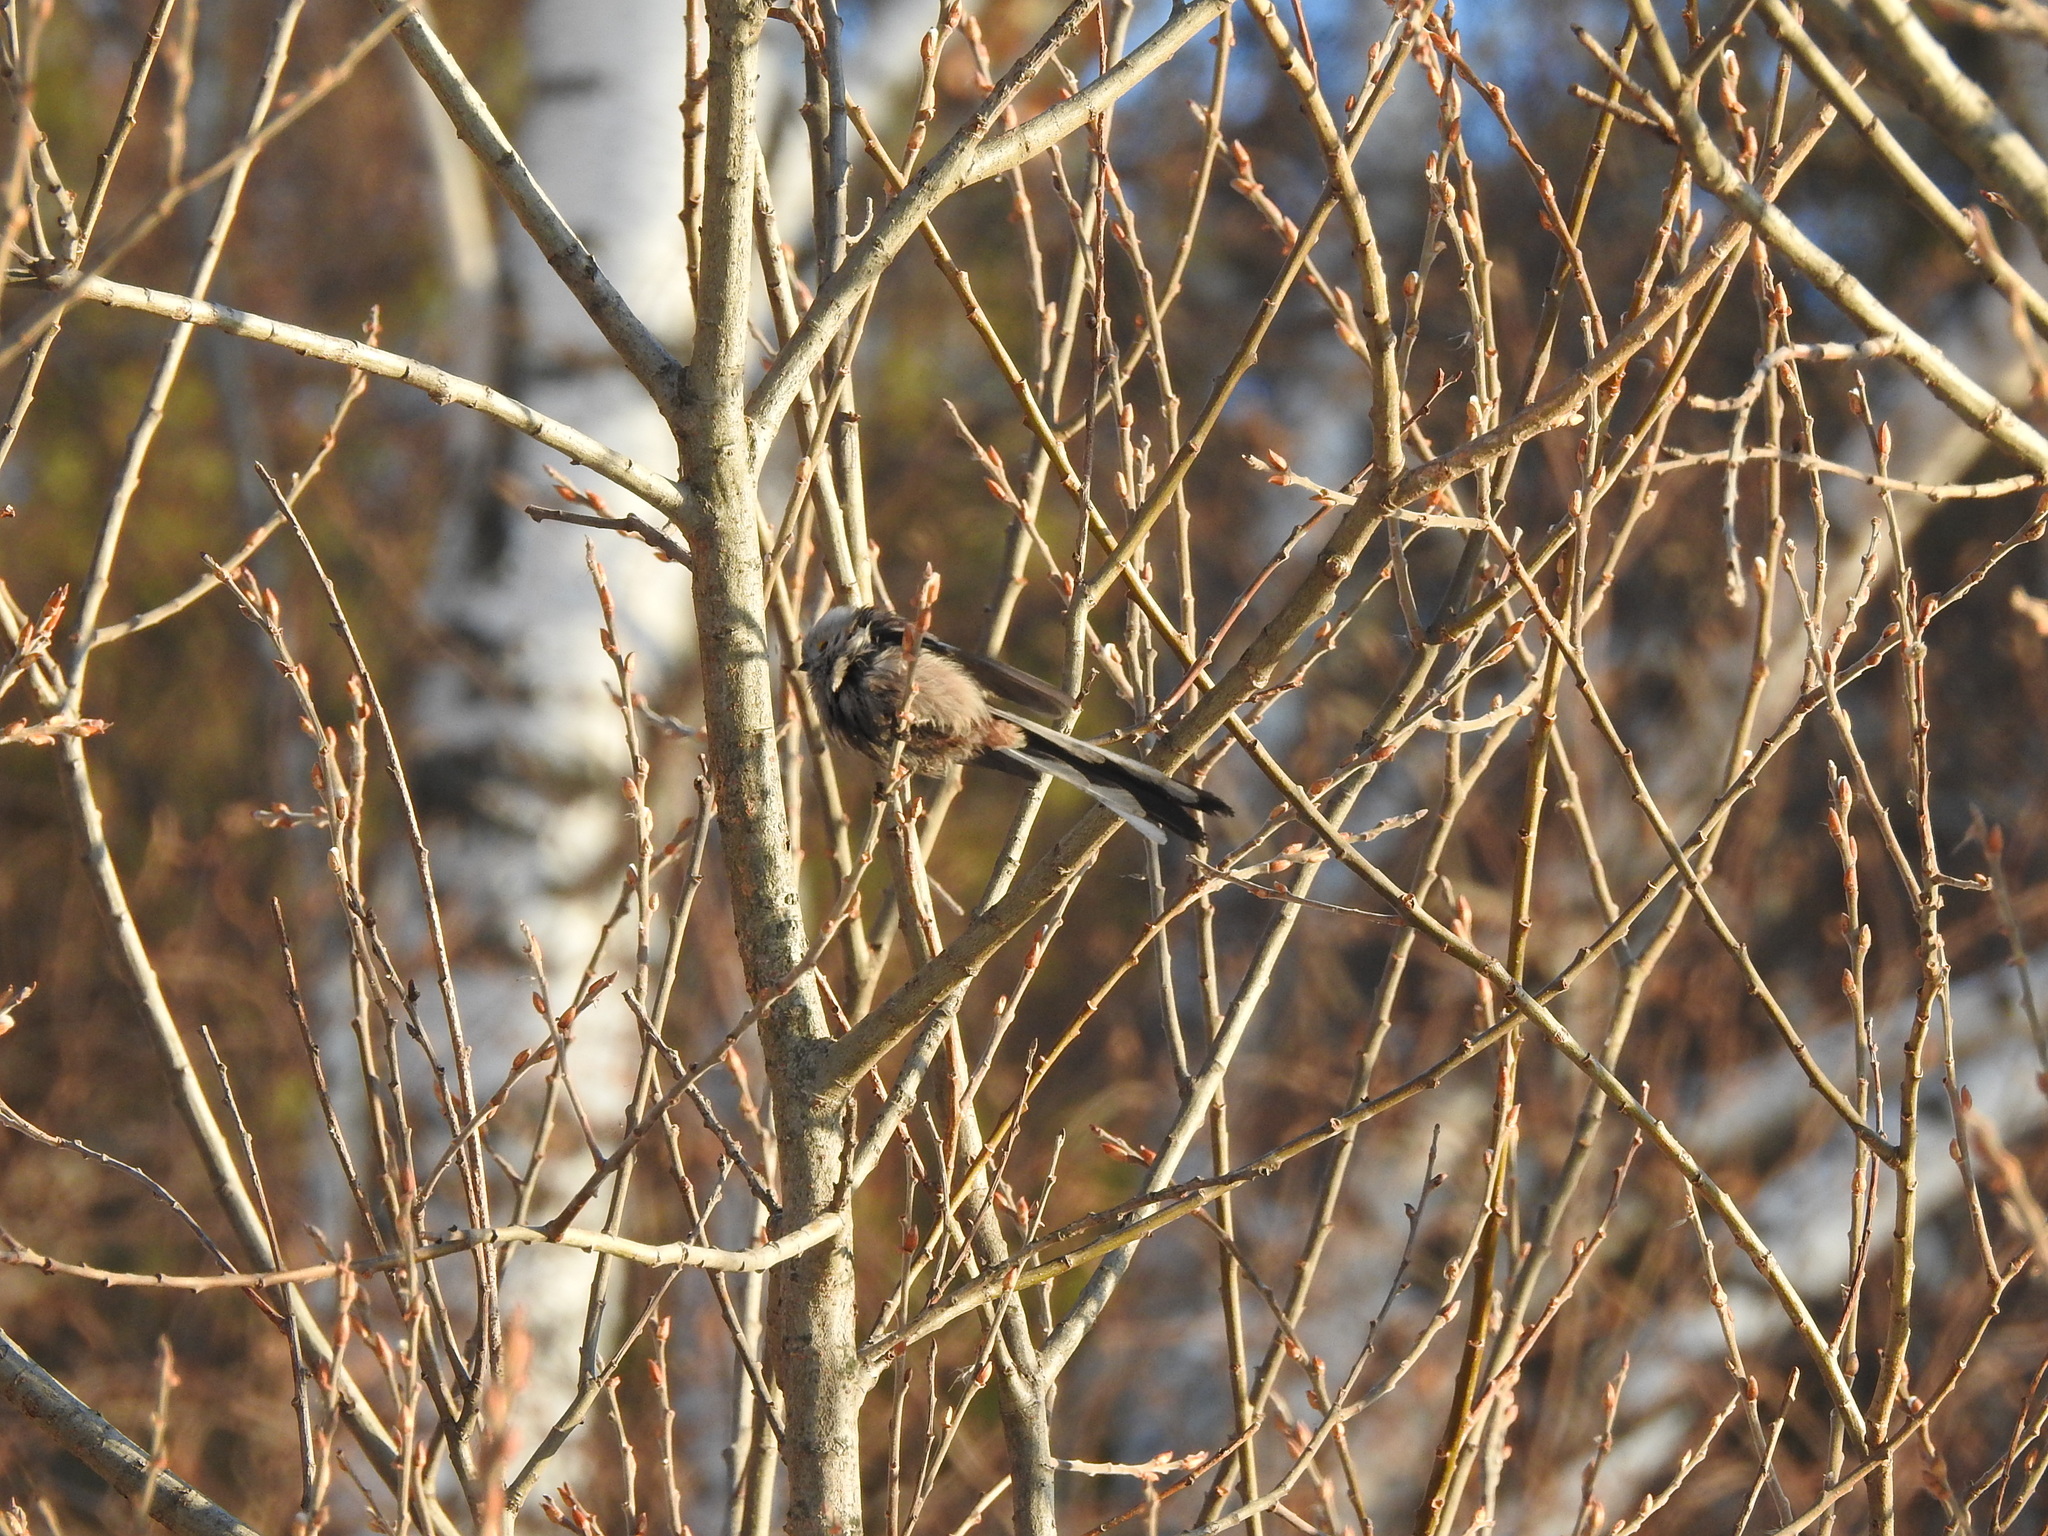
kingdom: Animalia
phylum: Chordata
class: Aves
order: Passeriformes
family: Aegithalidae
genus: Aegithalos
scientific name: Aegithalos caudatus
